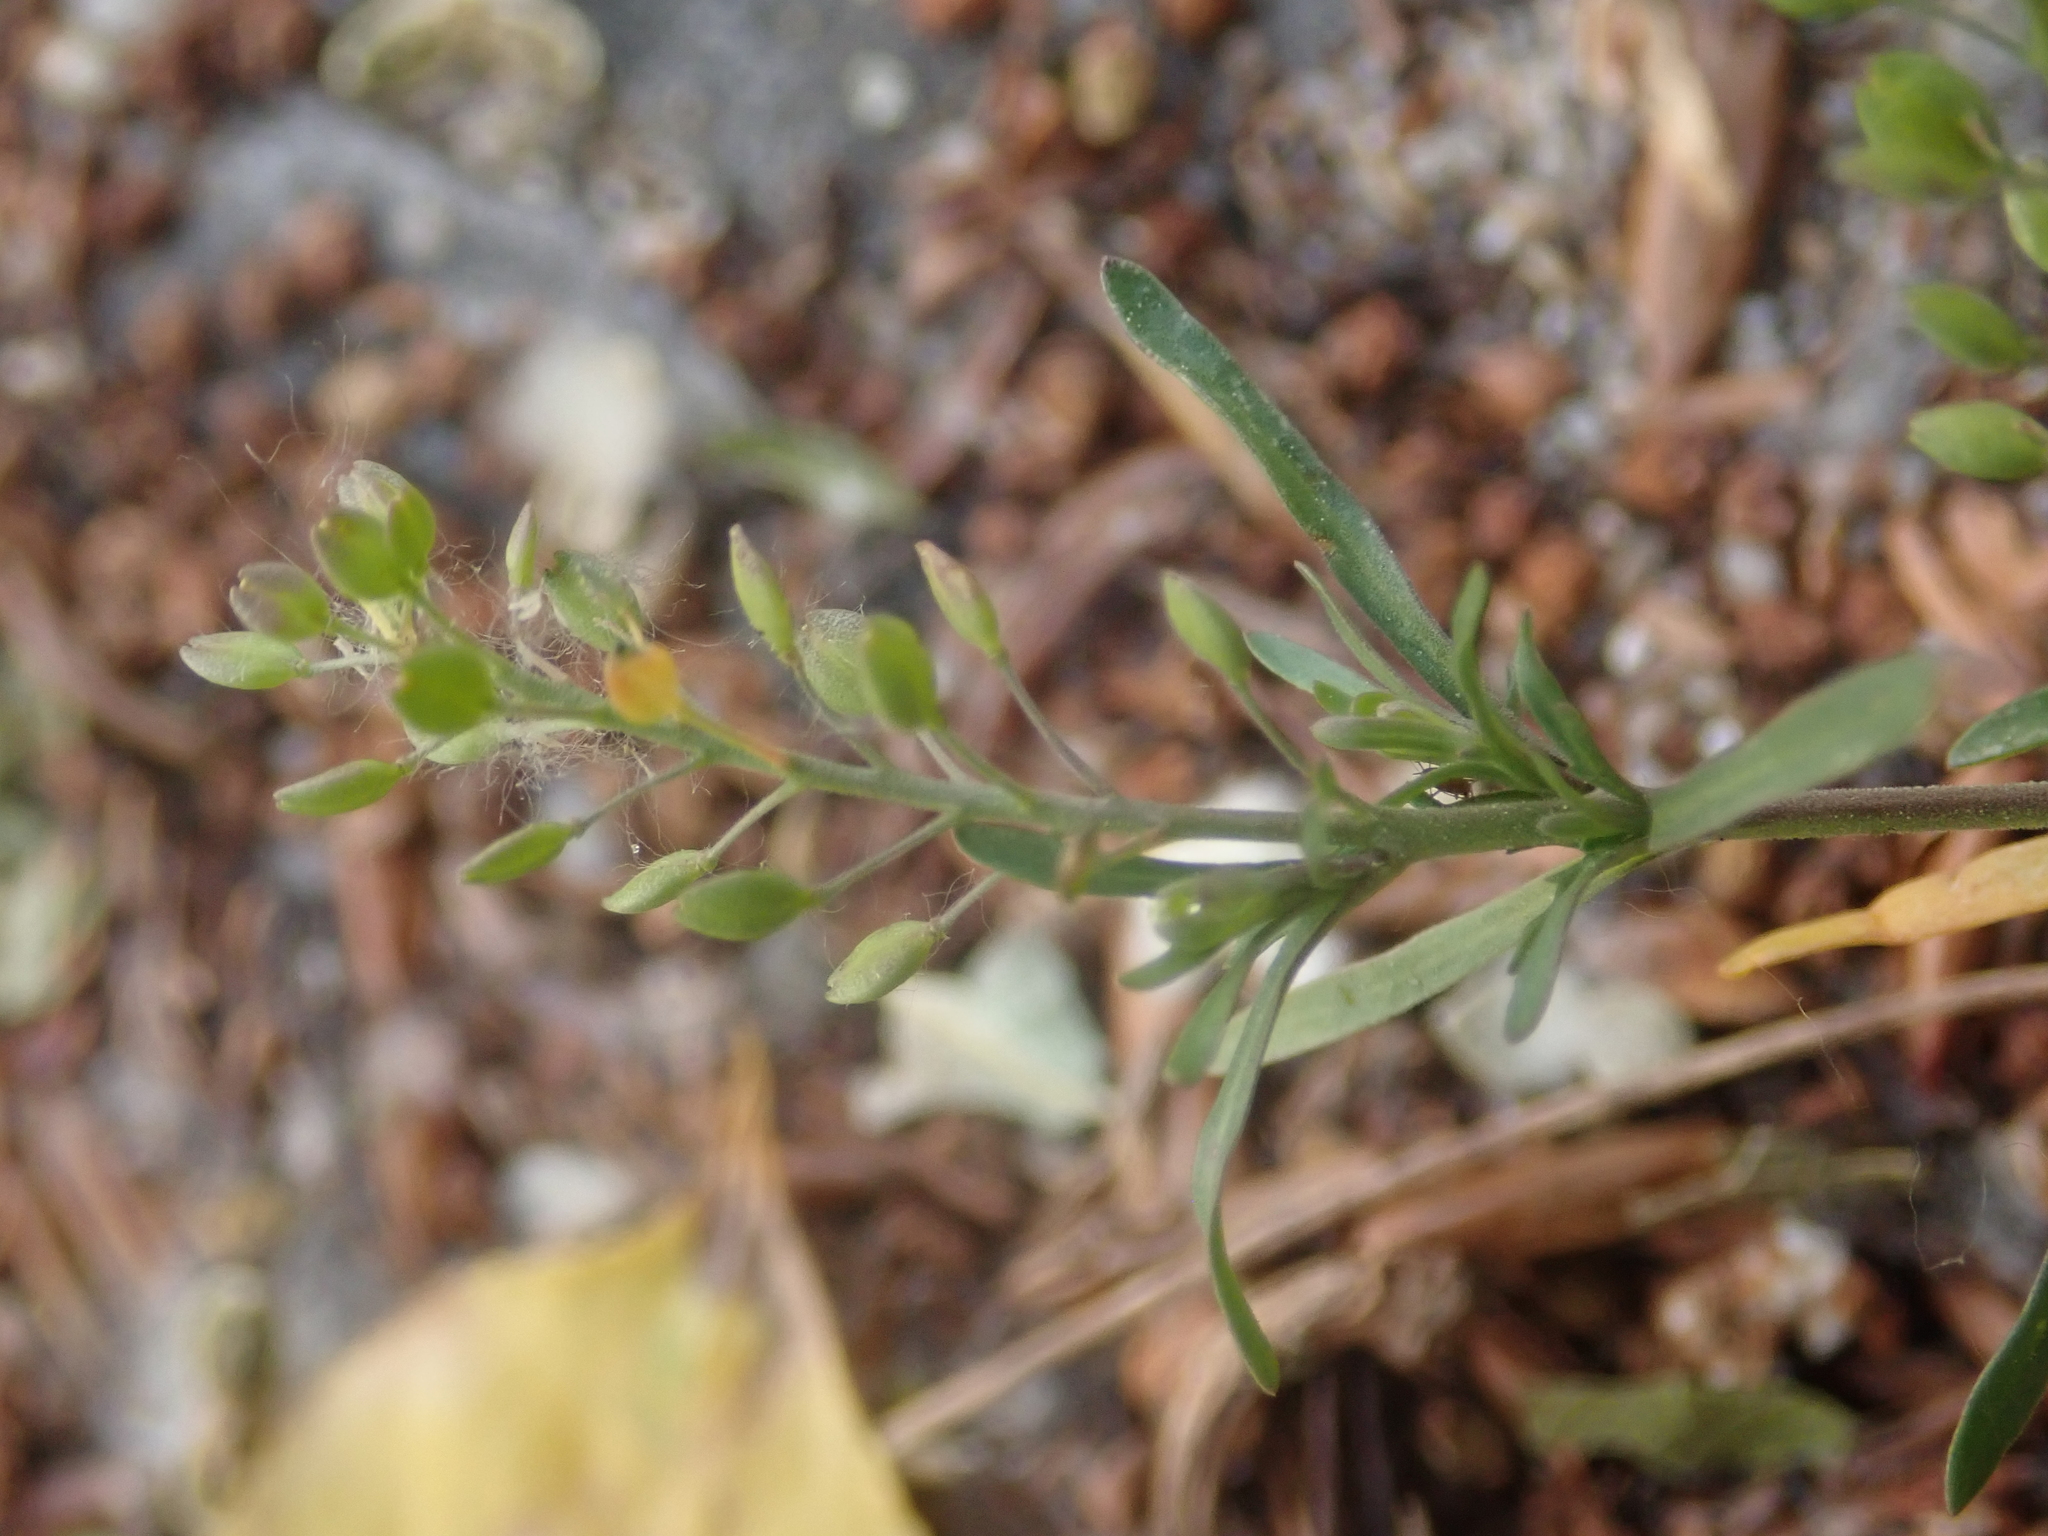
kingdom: Plantae
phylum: Tracheophyta
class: Magnoliopsida
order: Brassicales
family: Brassicaceae
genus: Lepidium
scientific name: Lepidium ruderale
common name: Narrow-leaved pepperwort
